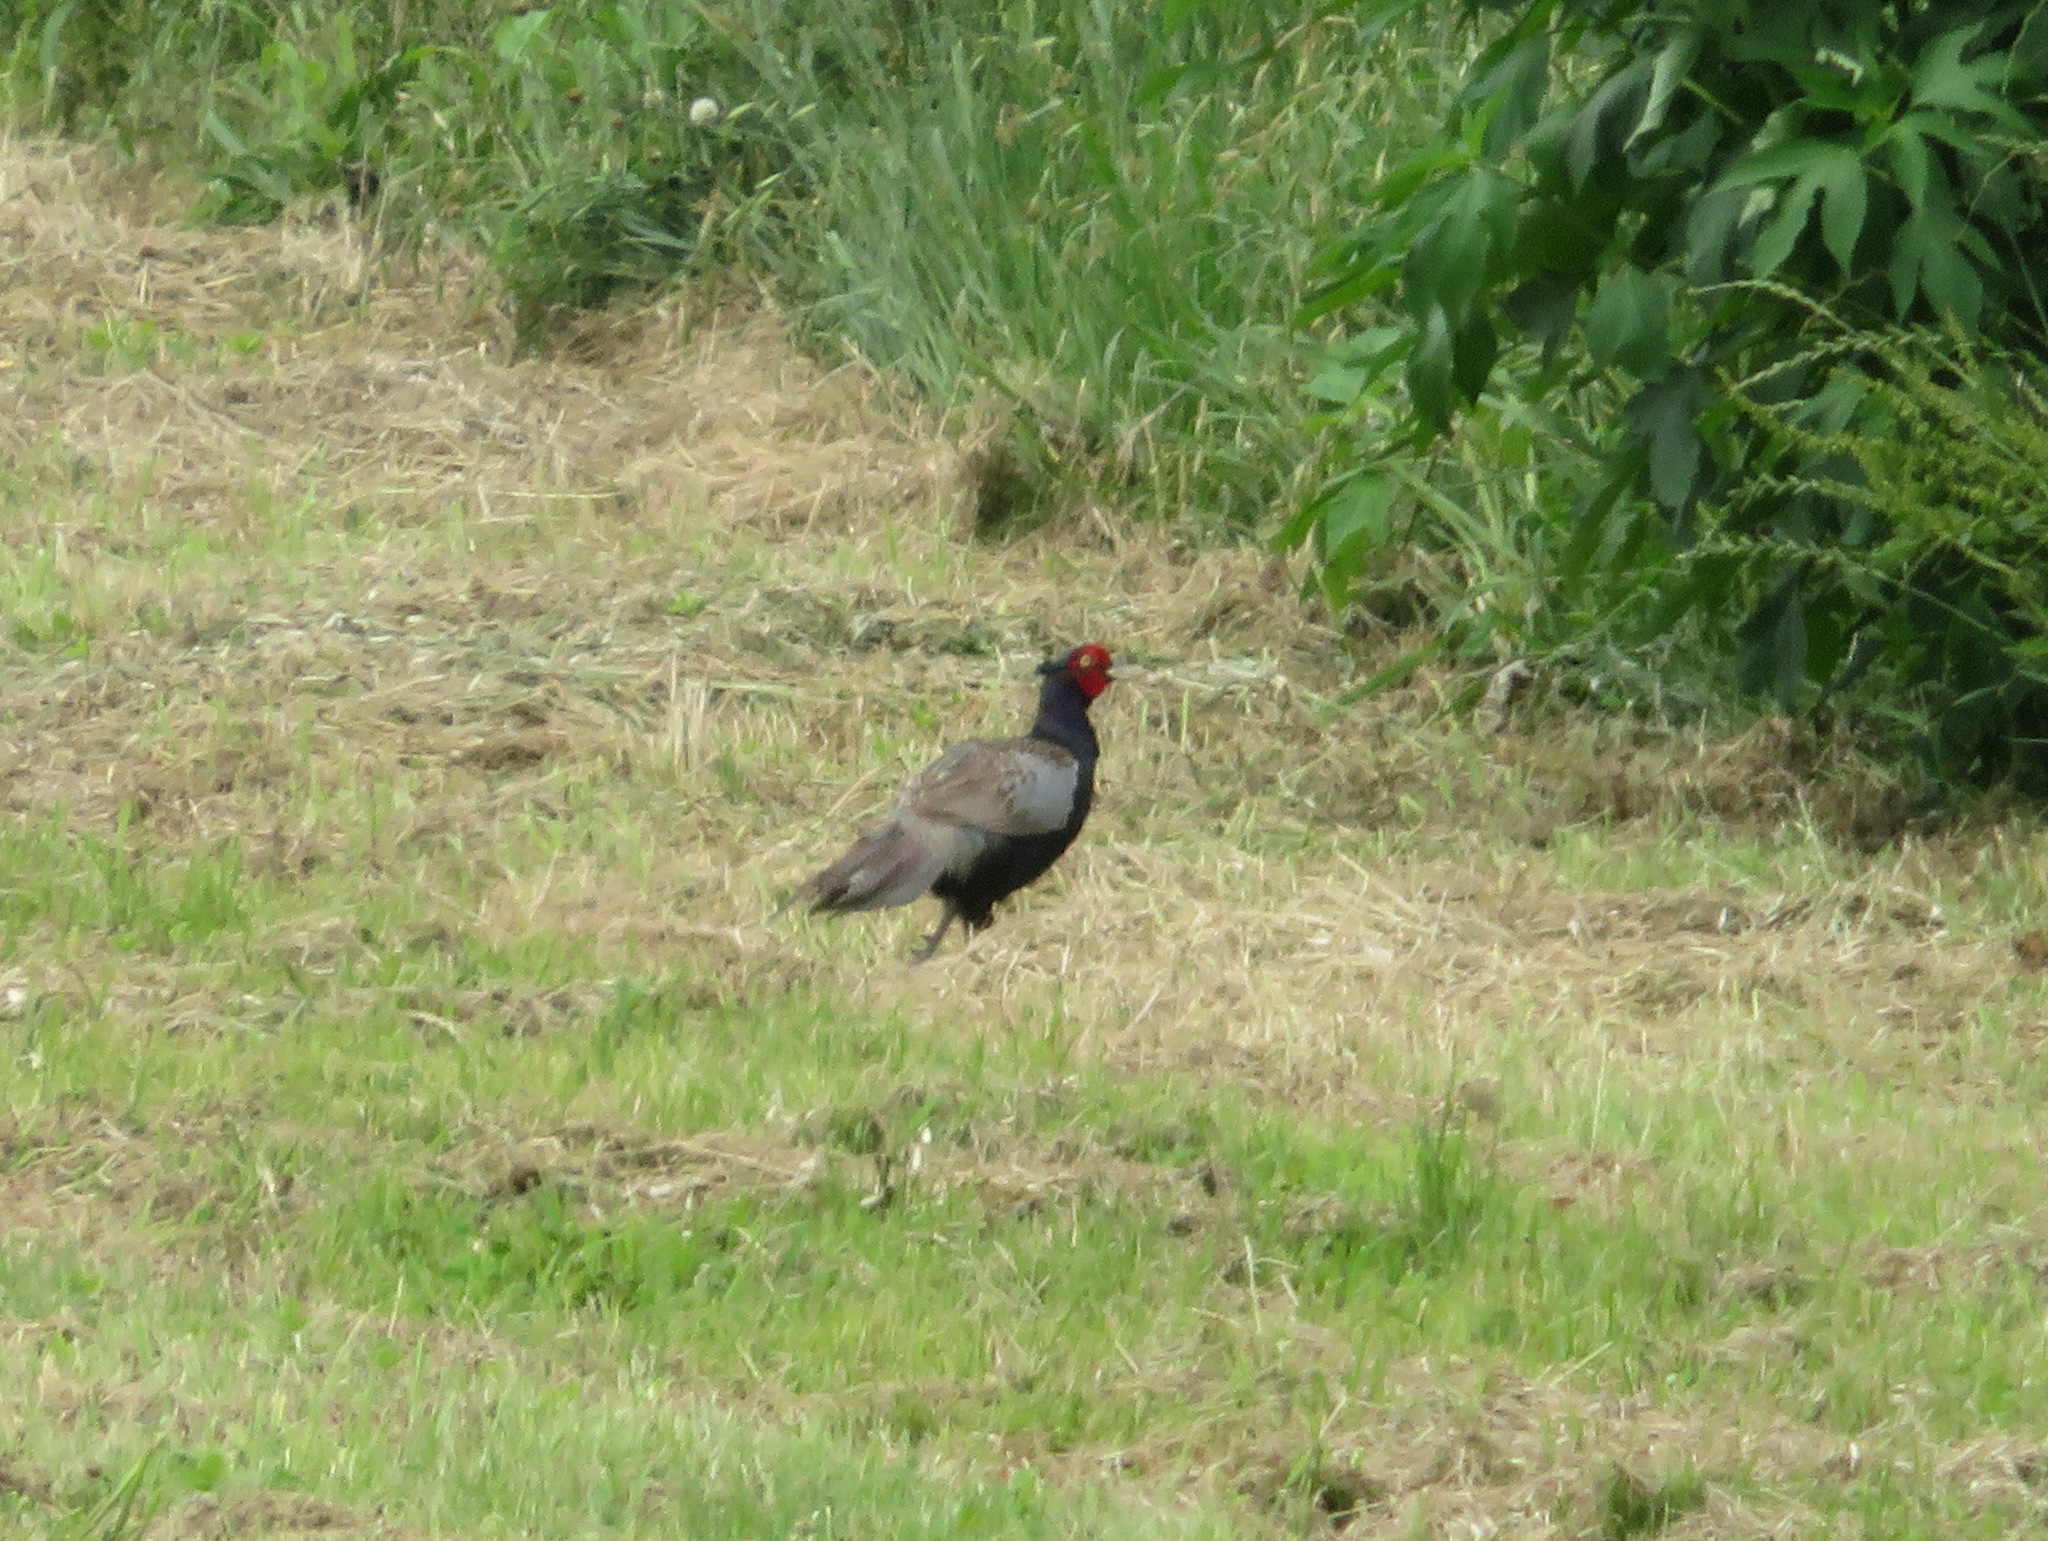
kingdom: Animalia
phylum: Chordata
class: Aves
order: Galliformes
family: Phasianidae
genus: Phasianus
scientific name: Phasianus versicolor
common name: Green pheasant
